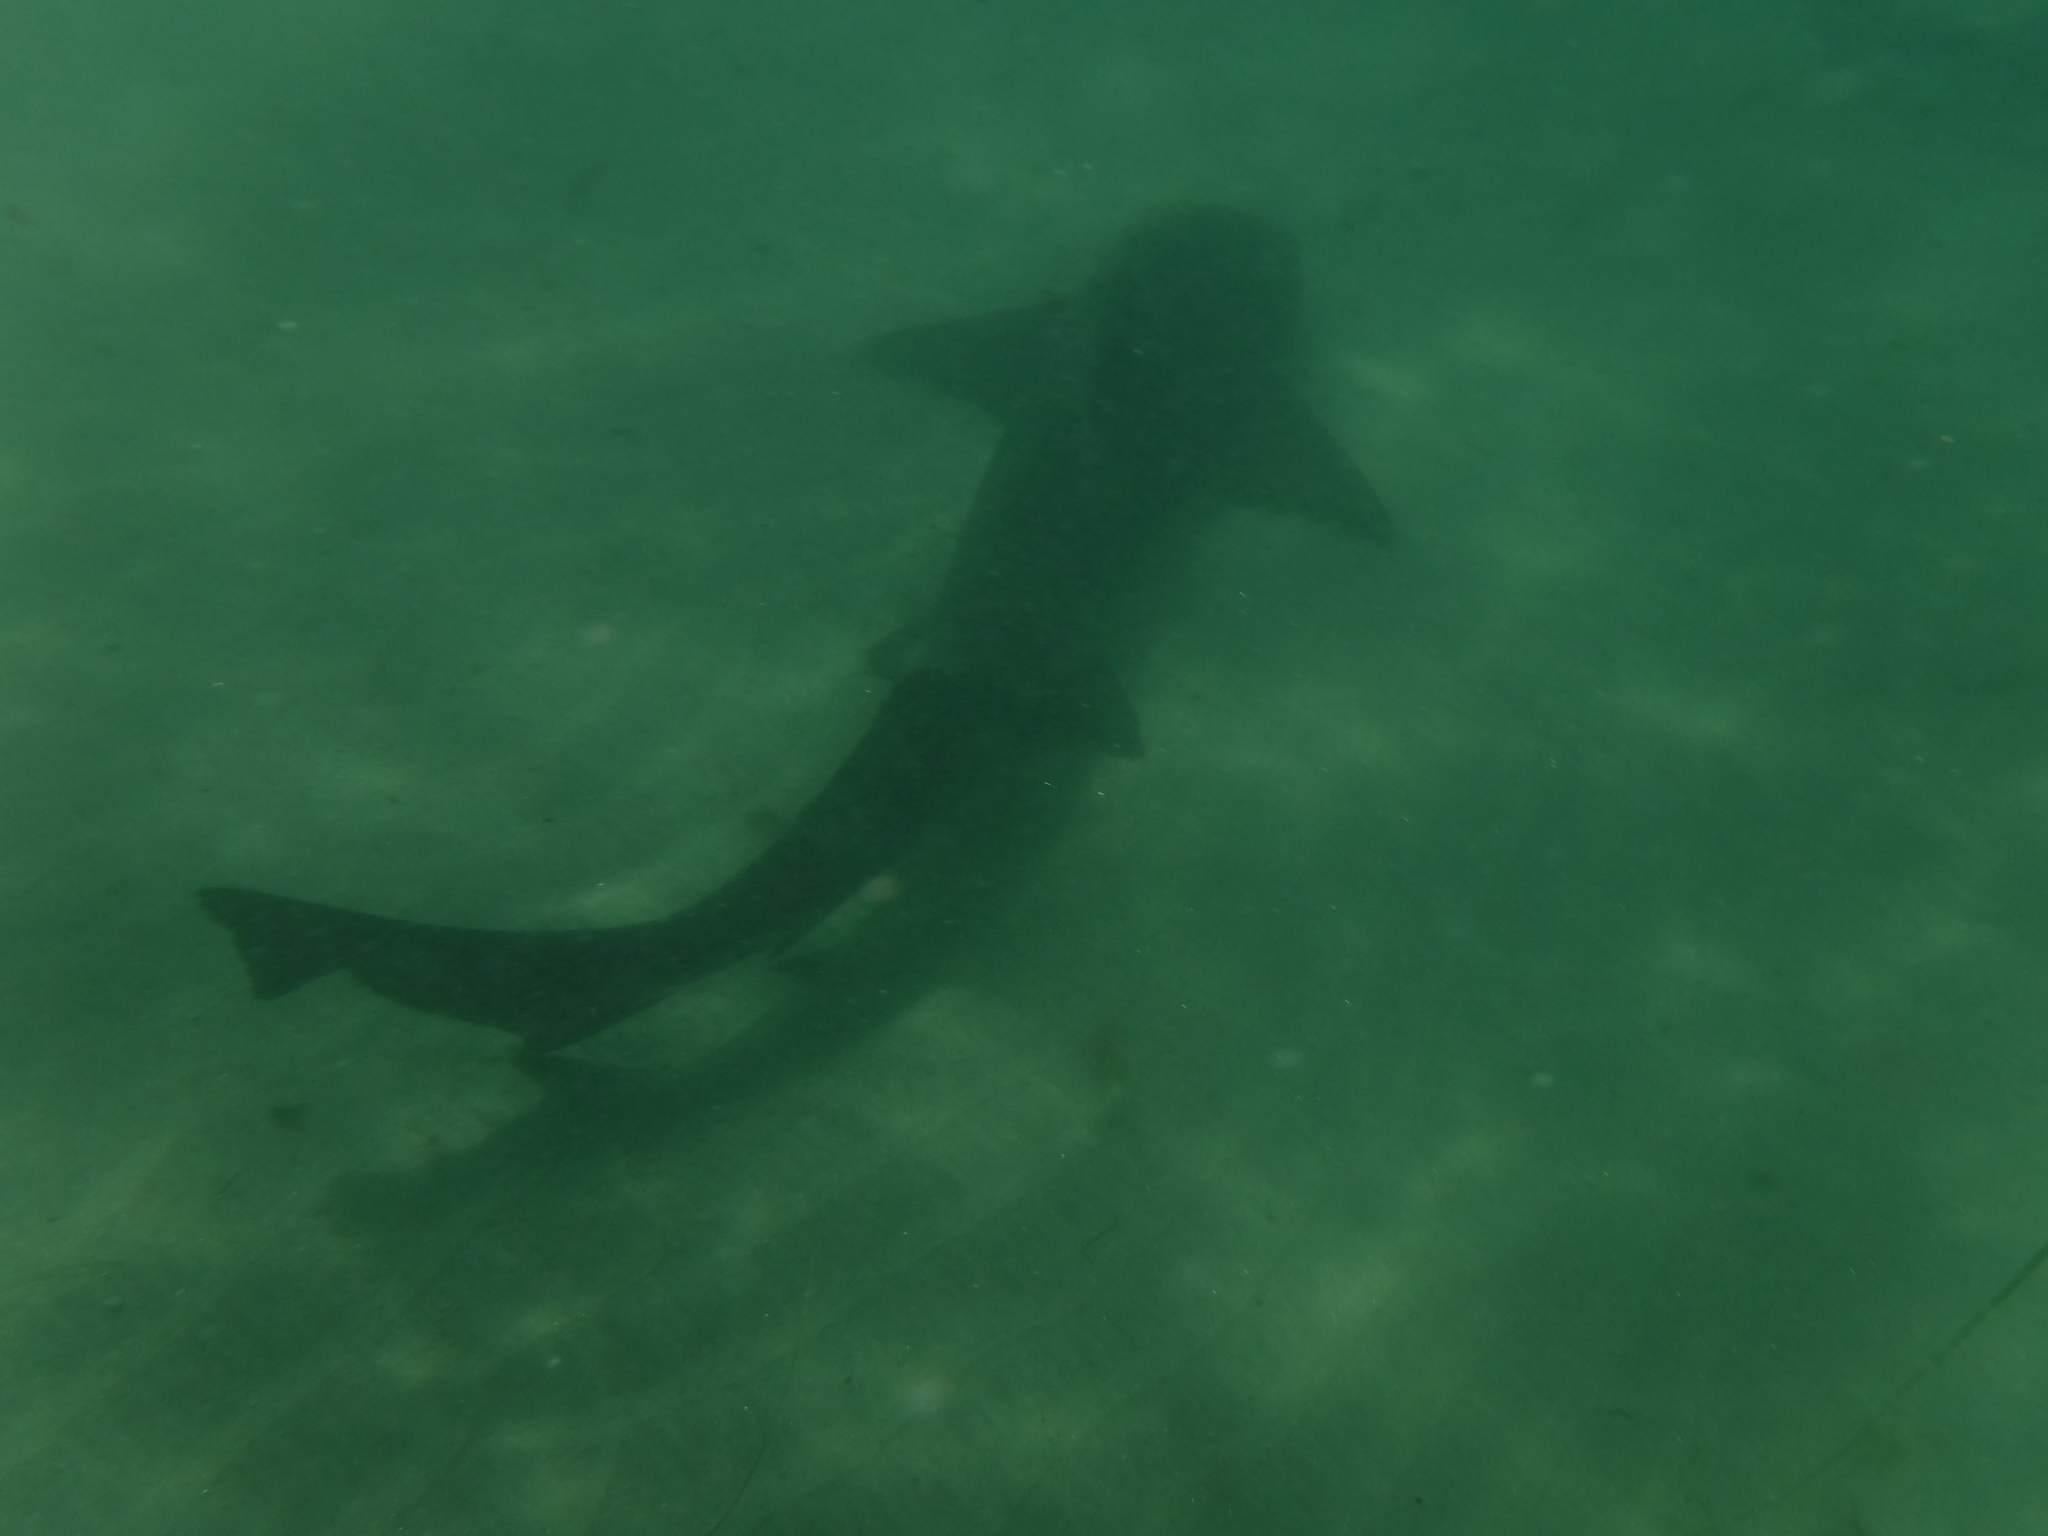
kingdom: Animalia
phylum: Chordata
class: Elasmobranchii
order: Carcharhiniformes
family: Triakidae
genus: Triakis
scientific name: Triakis semifasciata
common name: Leopard shark
